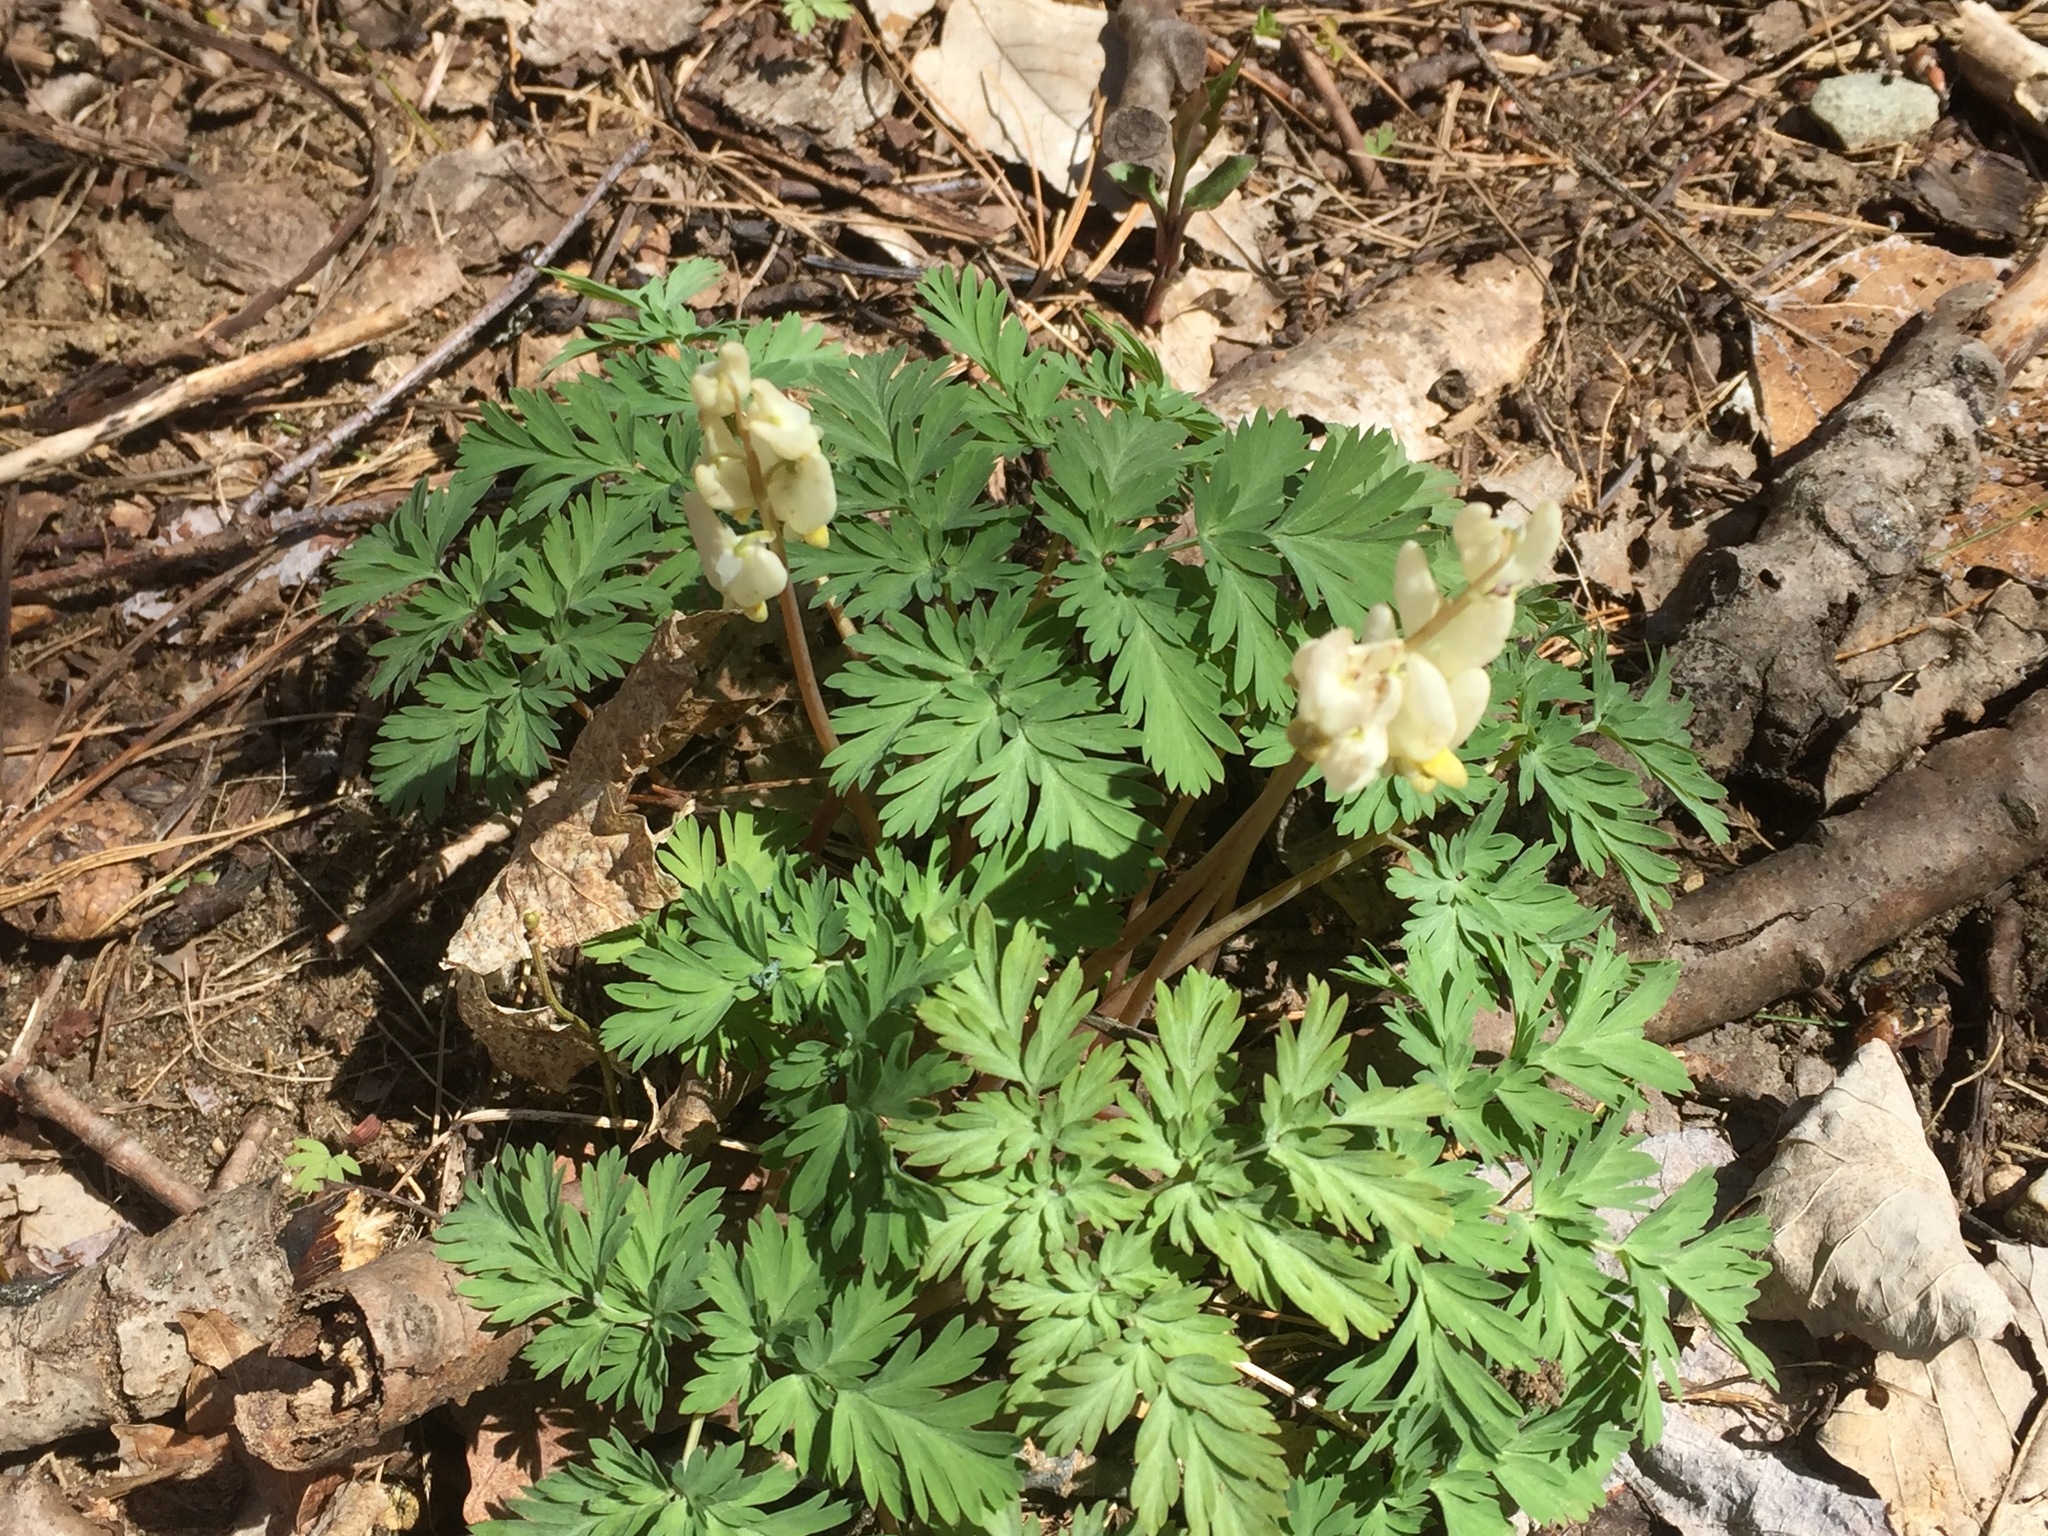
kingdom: Plantae
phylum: Tracheophyta
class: Magnoliopsida
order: Ranunculales
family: Papaveraceae
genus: Dicentra
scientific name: Dicentra cucullaria
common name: Dutchman's breeches
